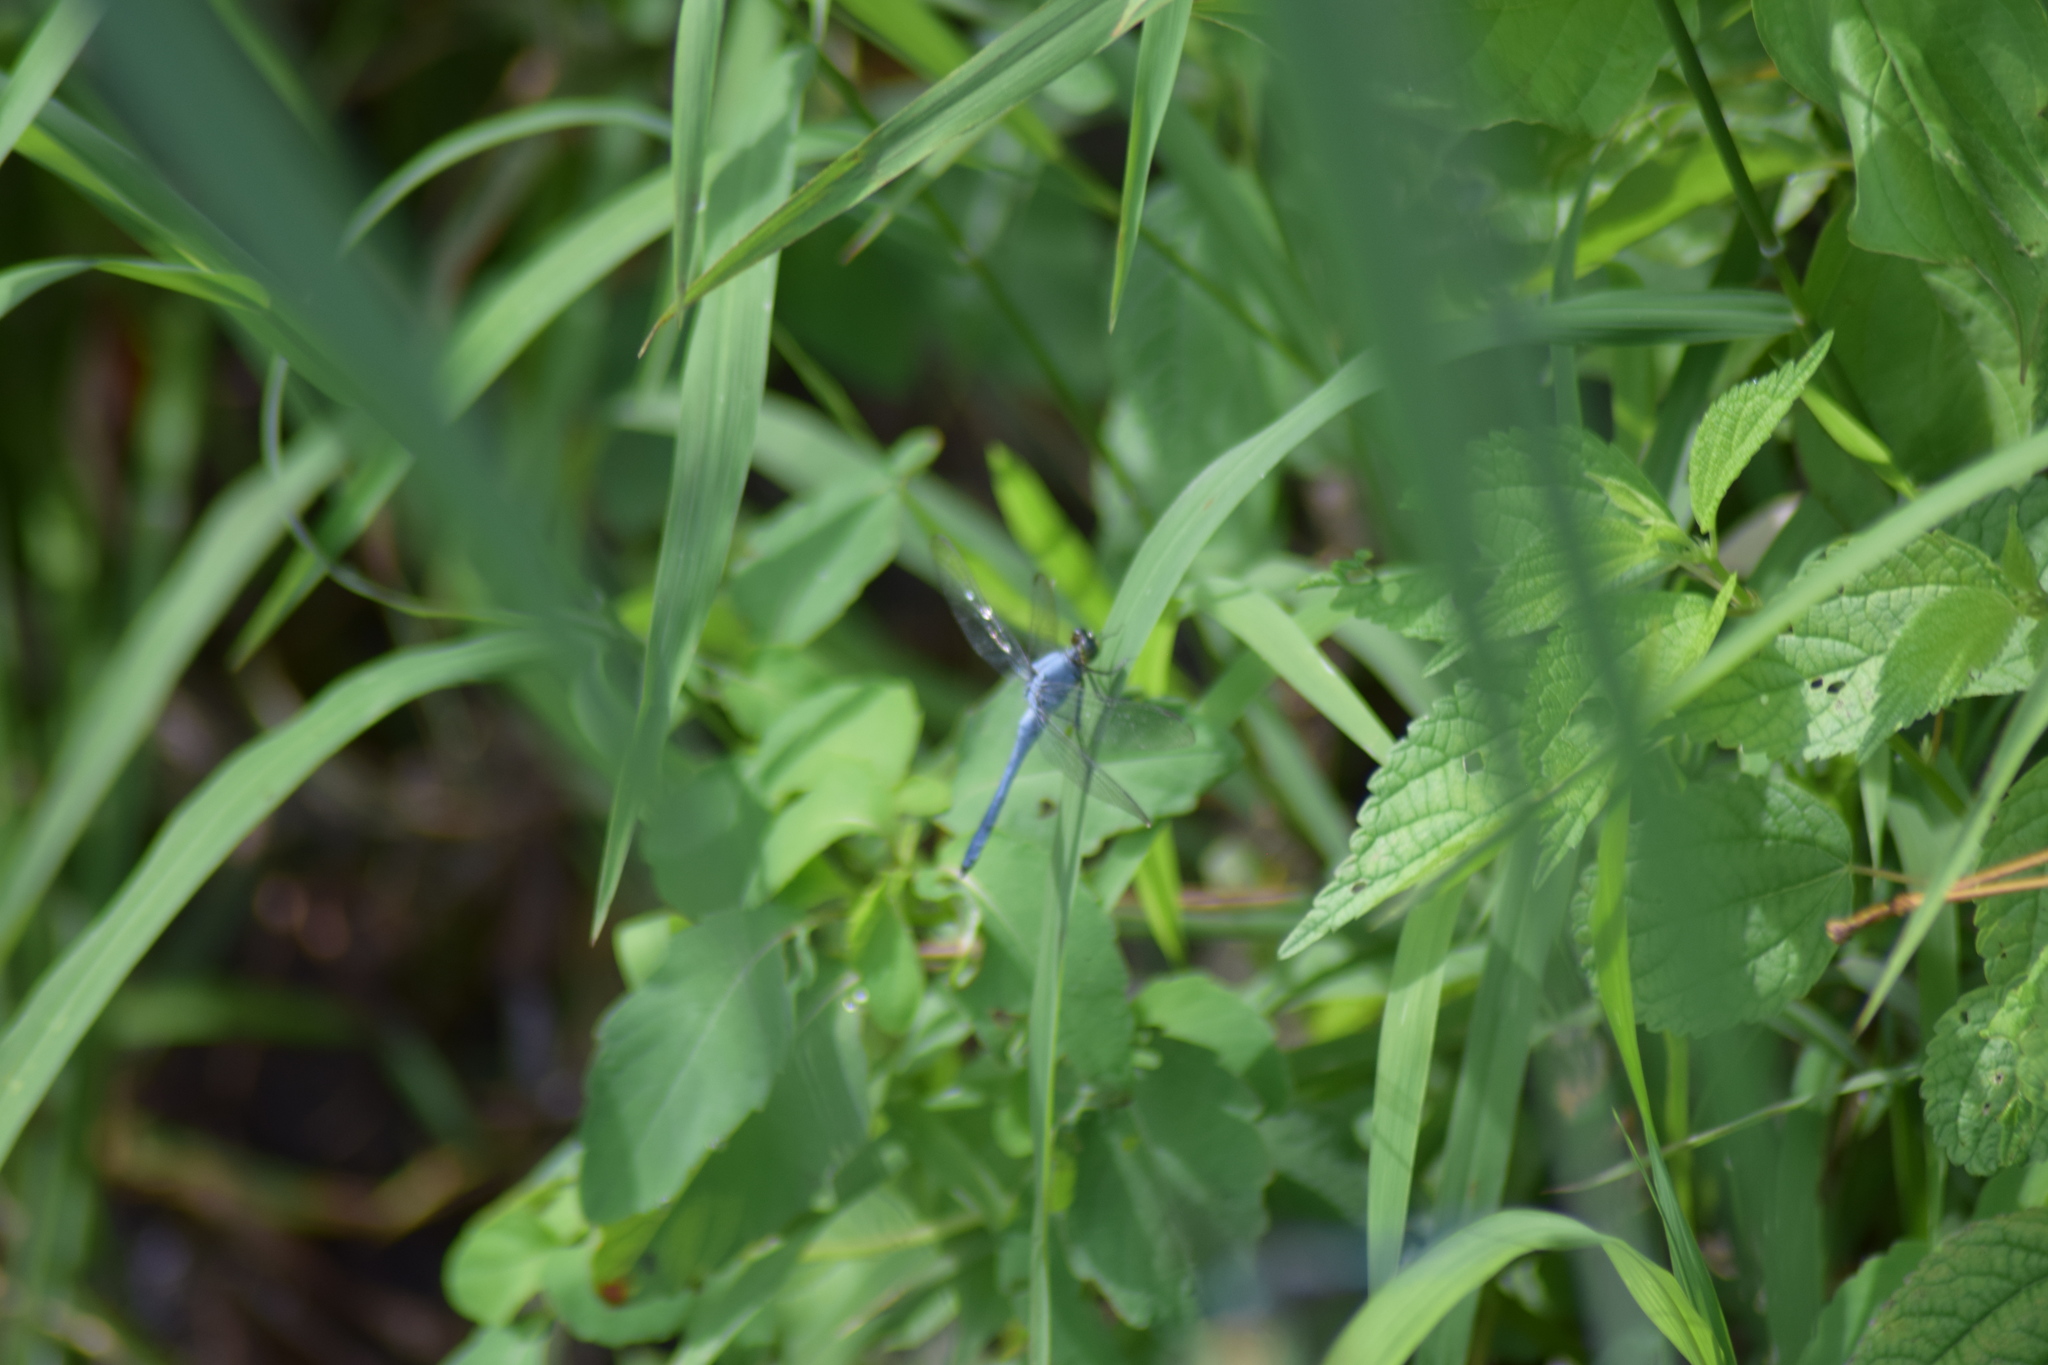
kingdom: Animalia
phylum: Arthropoda
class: Insecta
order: Odonata
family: Libellulidae
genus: Erythemis
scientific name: Erythemis simplicicollis
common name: Eastern pondhawk
